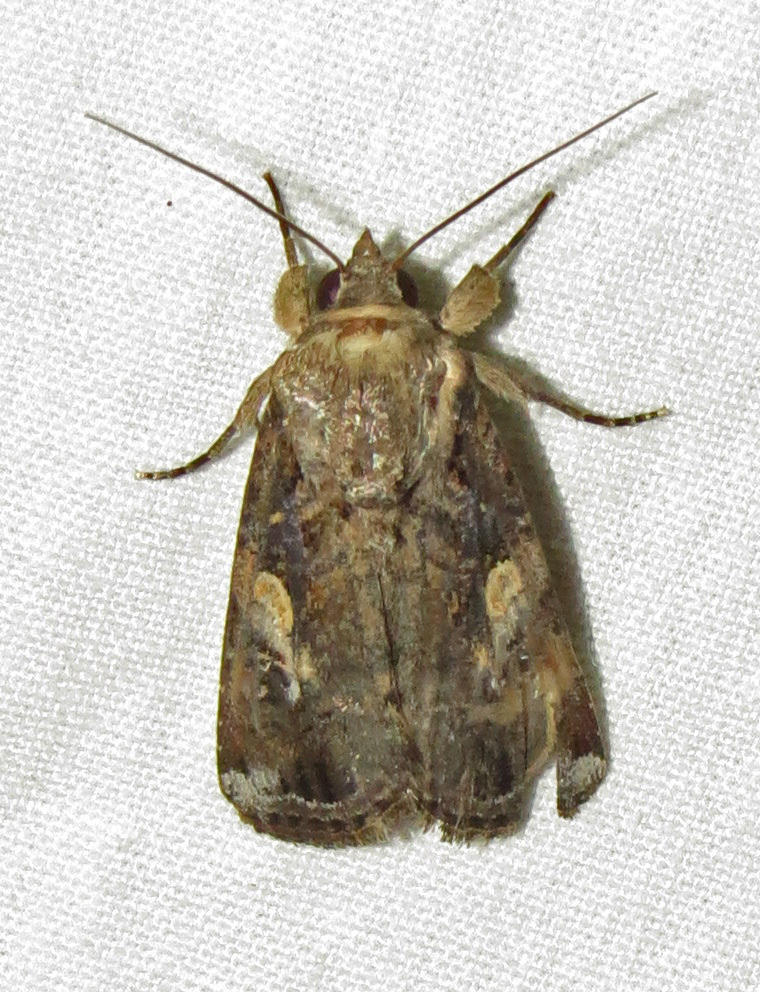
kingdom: Animalia
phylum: Arthropoda
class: Insecta
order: Lepidoptera
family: Noctuidae
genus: Spodoptera
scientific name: Spodoptera frugiperda
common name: Fall armyworm
